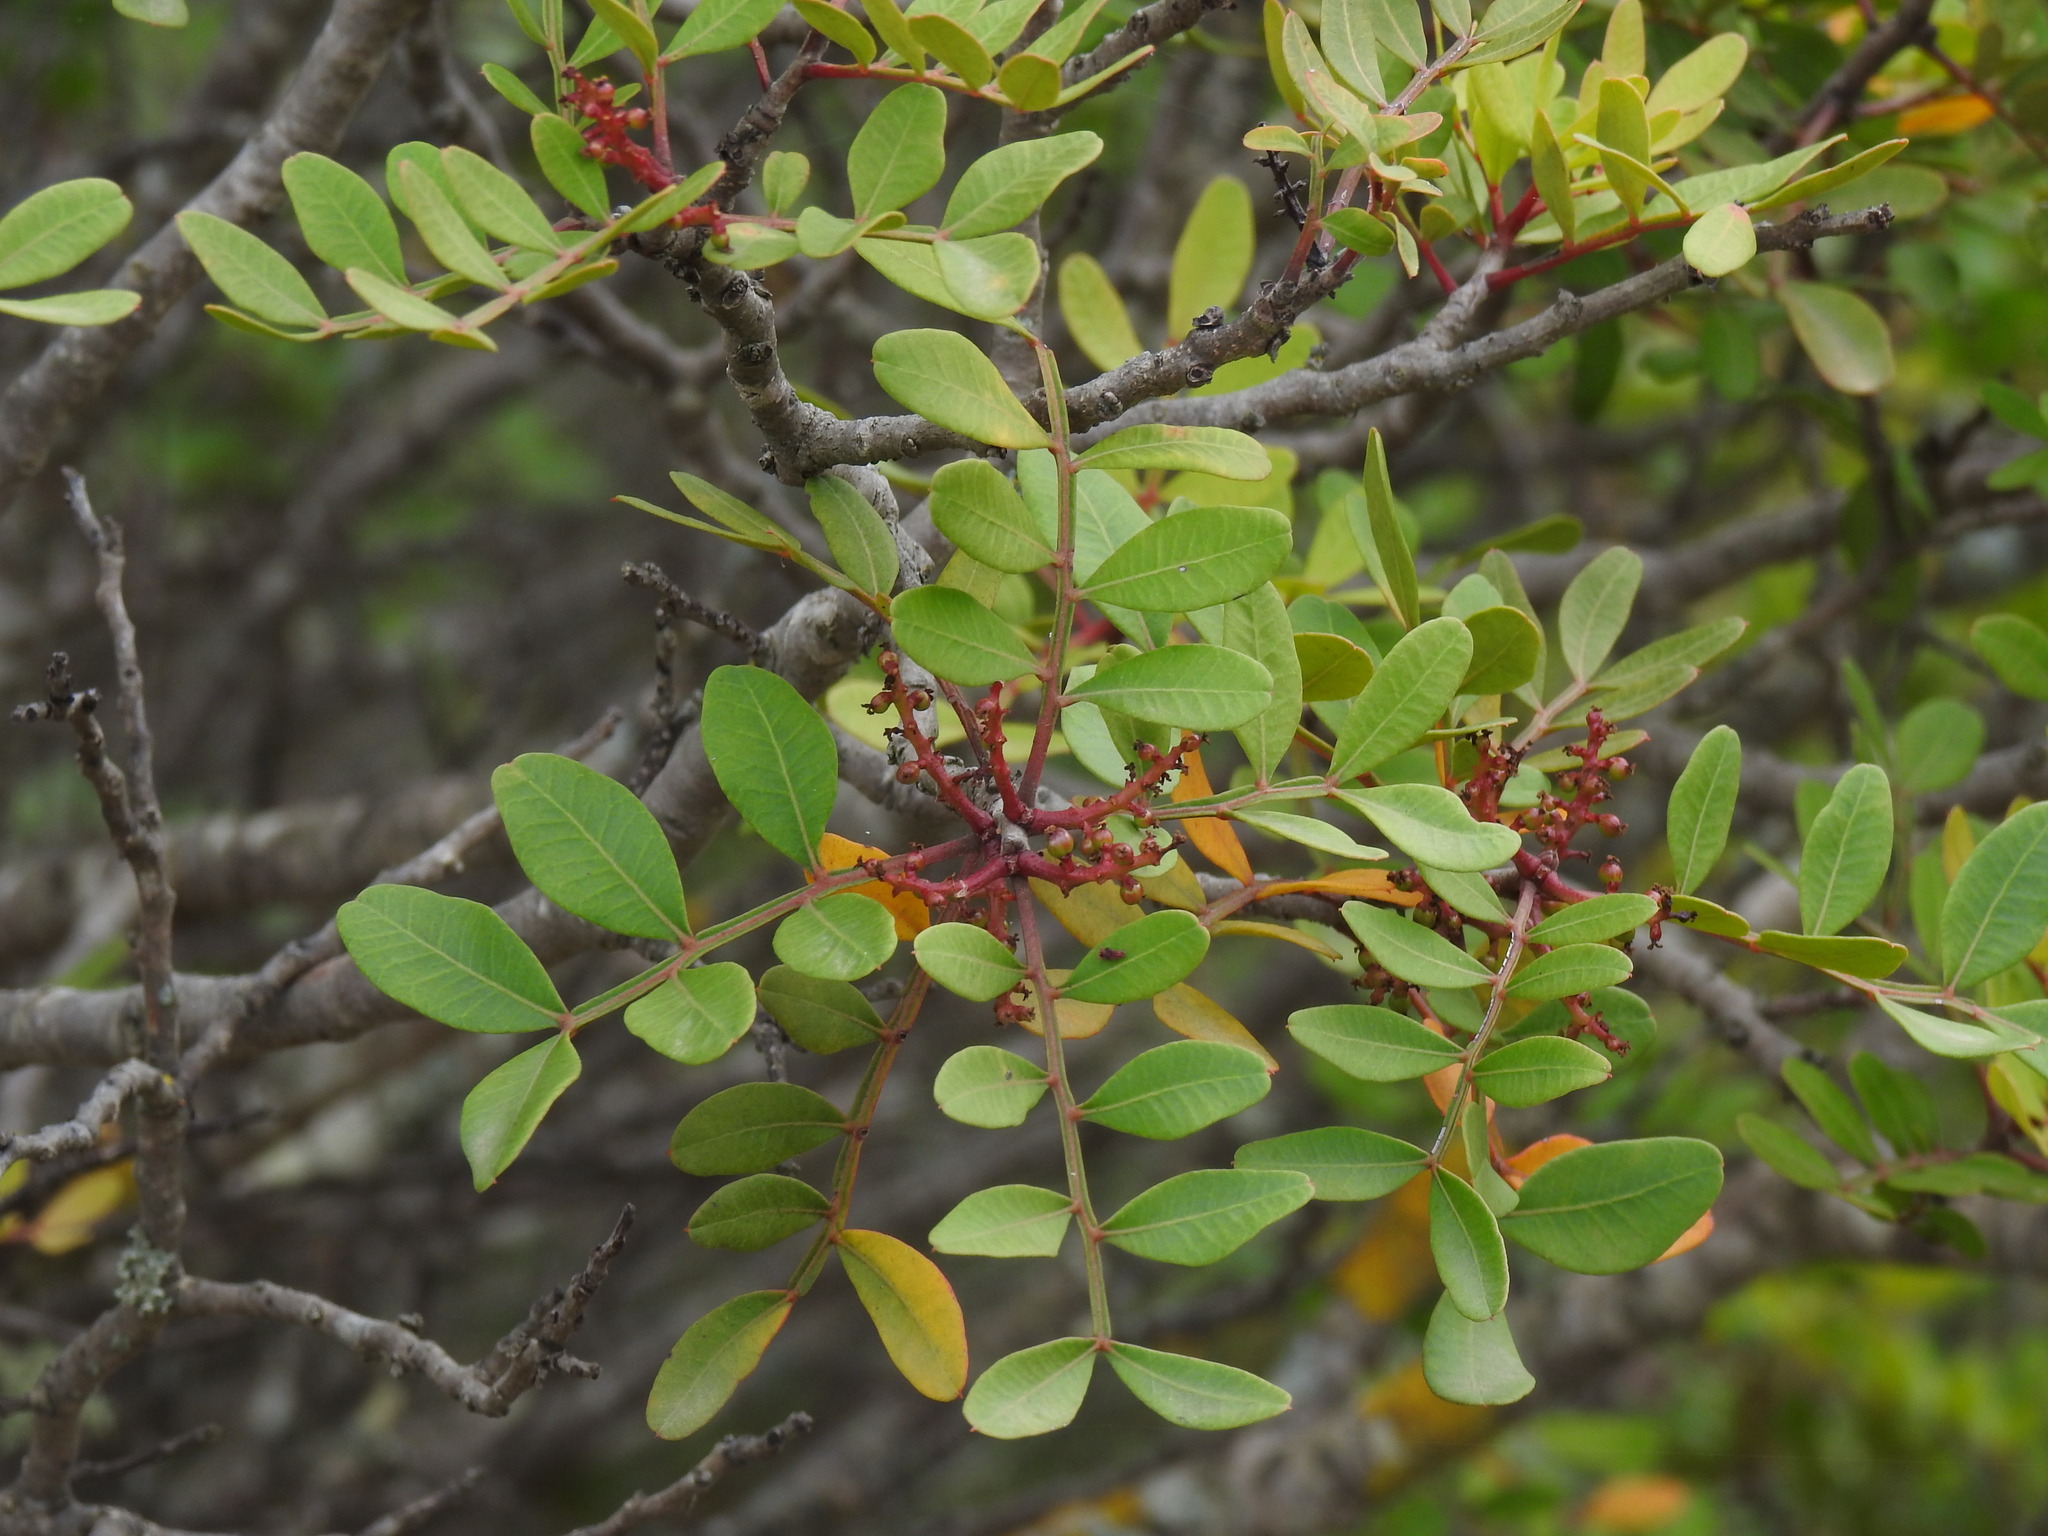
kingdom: Plantae
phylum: Tracheophyta
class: Magnoliopsida
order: Sapindales
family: Anacardiaceae
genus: Pistacia
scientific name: Pistacia lentiscus
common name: Lentisk
